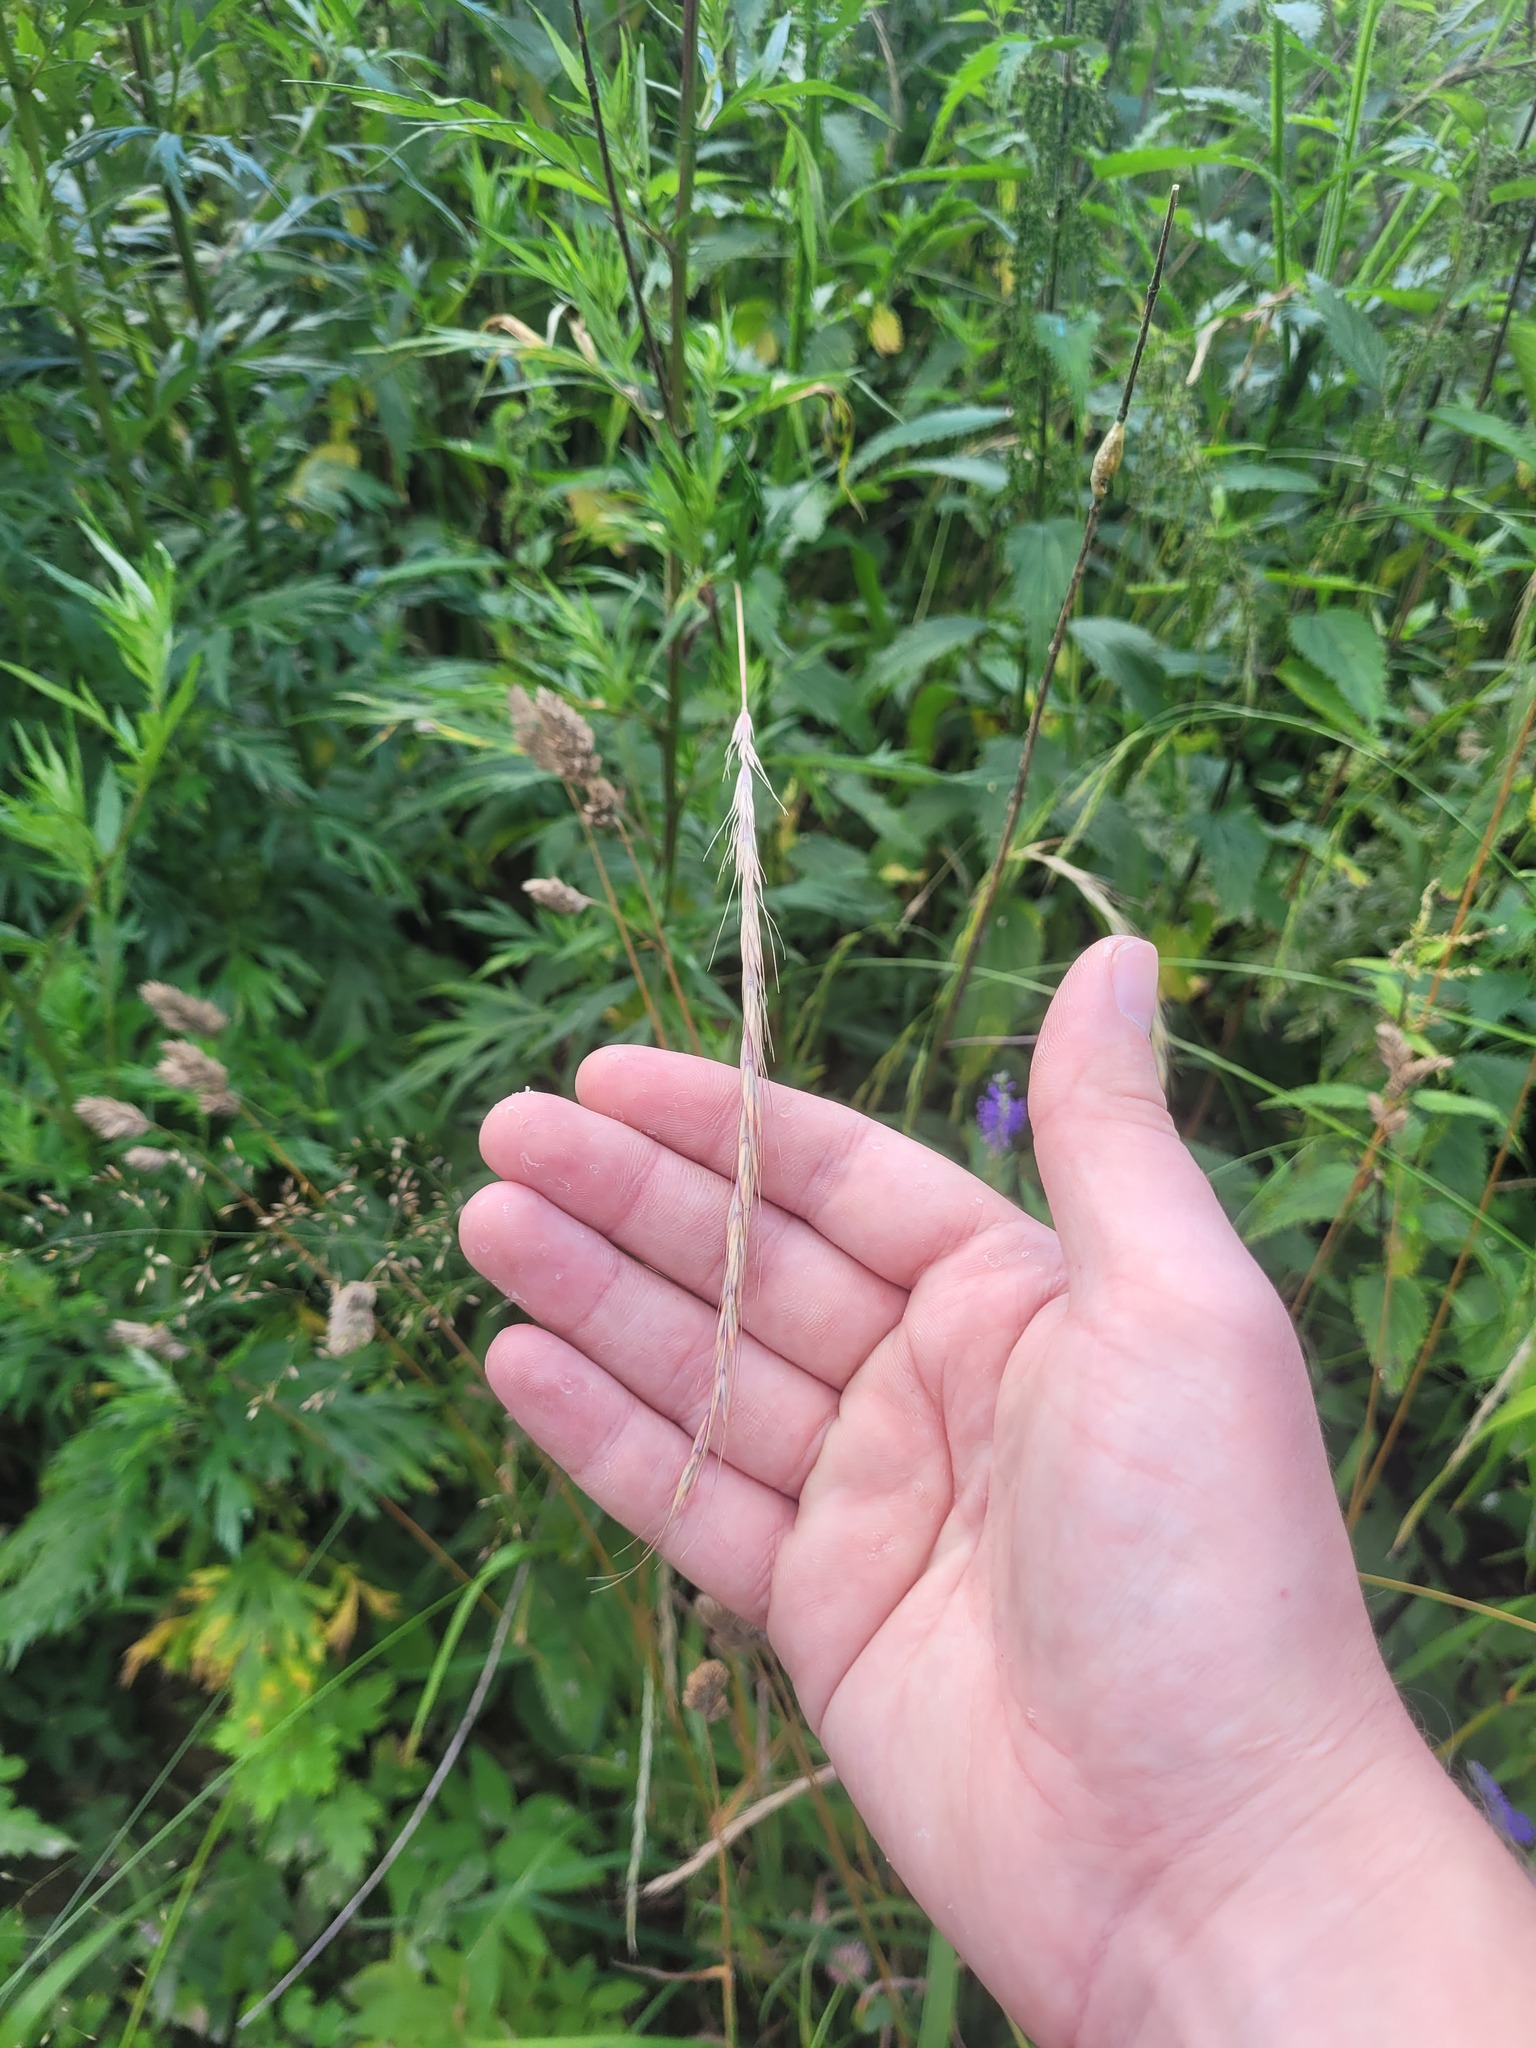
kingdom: Plantae
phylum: Tracheophyta
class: Liliopsida
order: Poales
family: Poaceae
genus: Elymus
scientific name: Elymus caninus
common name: Bearded couch
